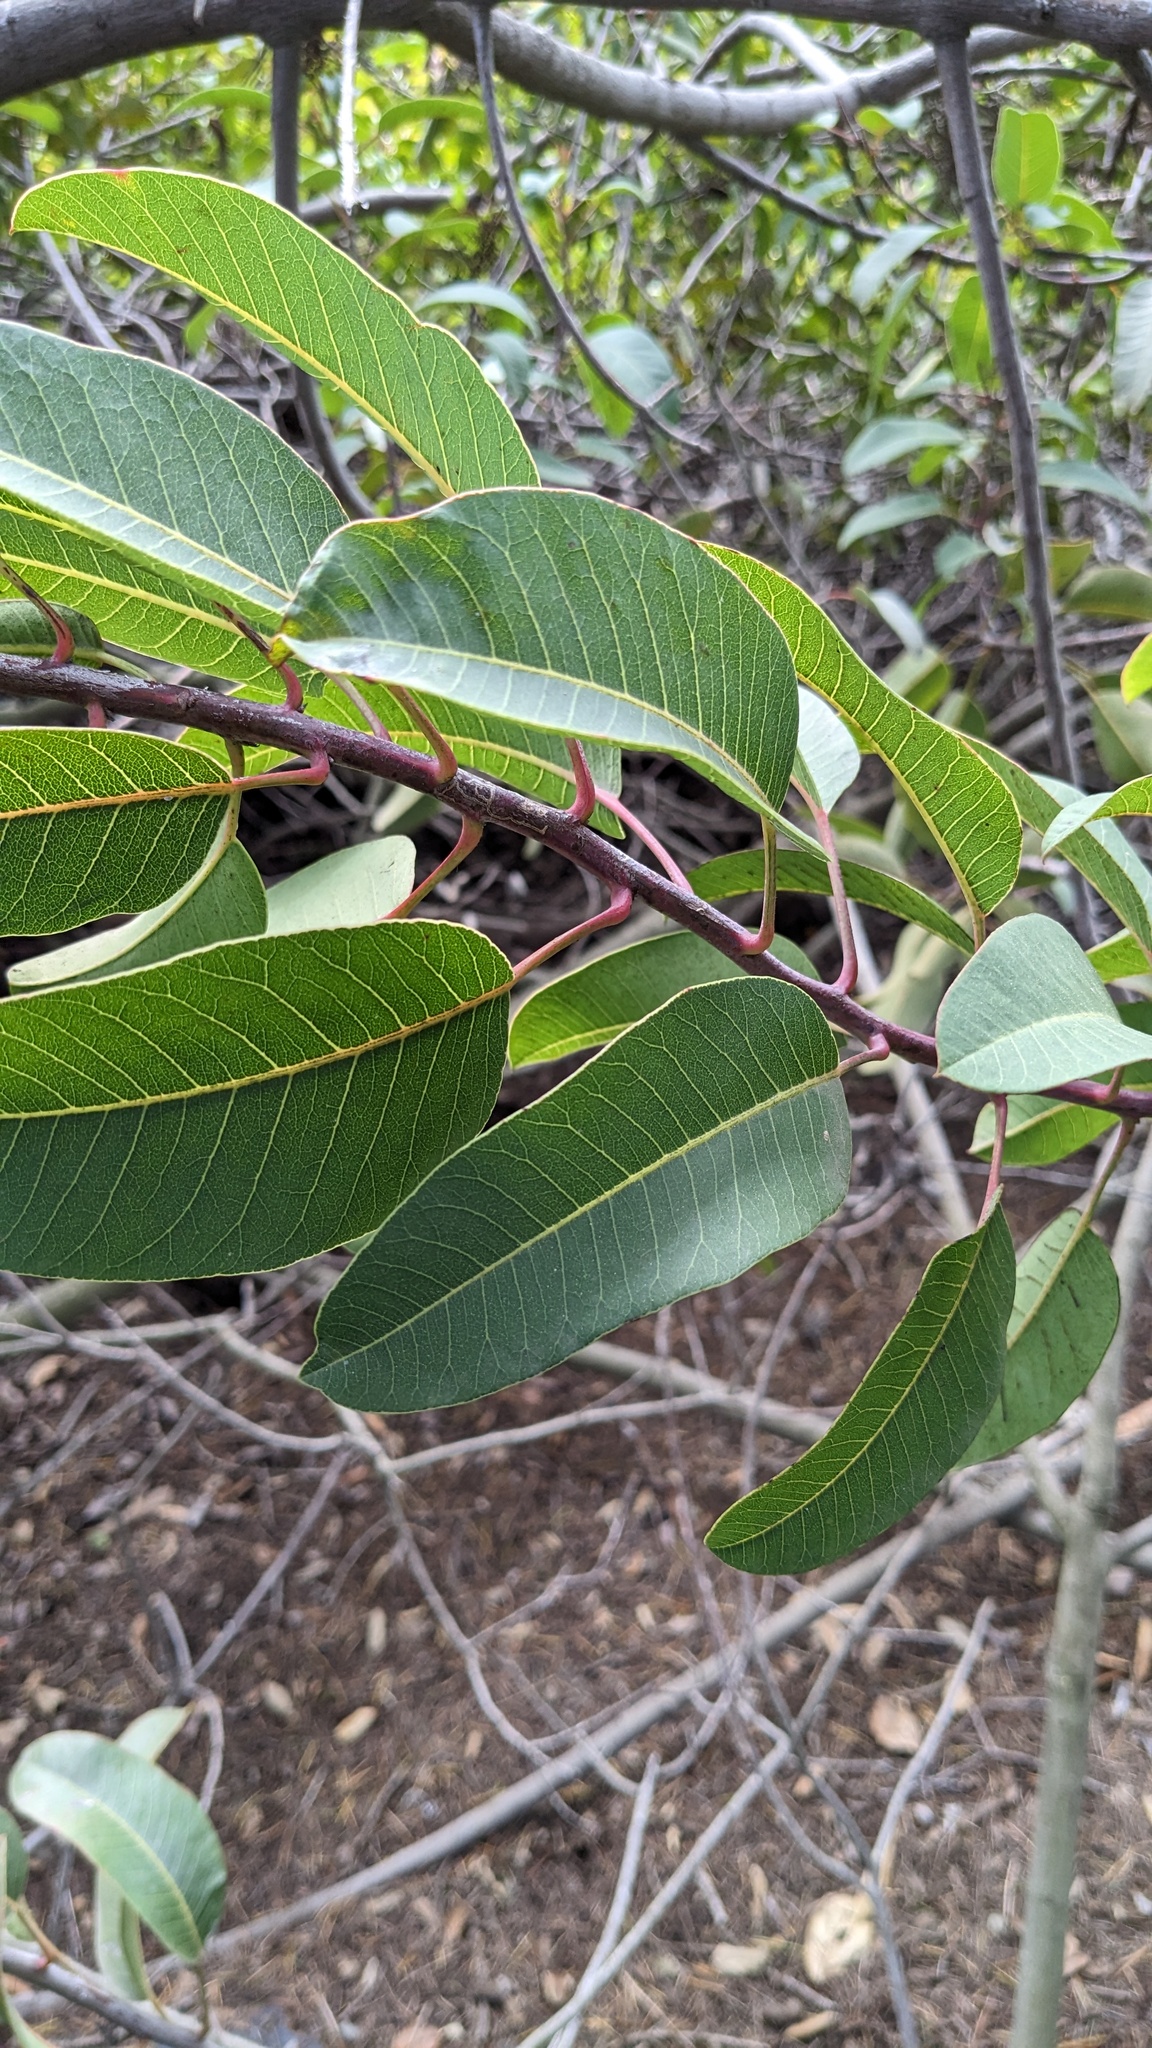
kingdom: Plantae
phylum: Tracheophyta
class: Magnoliopsida
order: Sapindales
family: Anacardiaceae
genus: Malosma
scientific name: Malosma laurina
